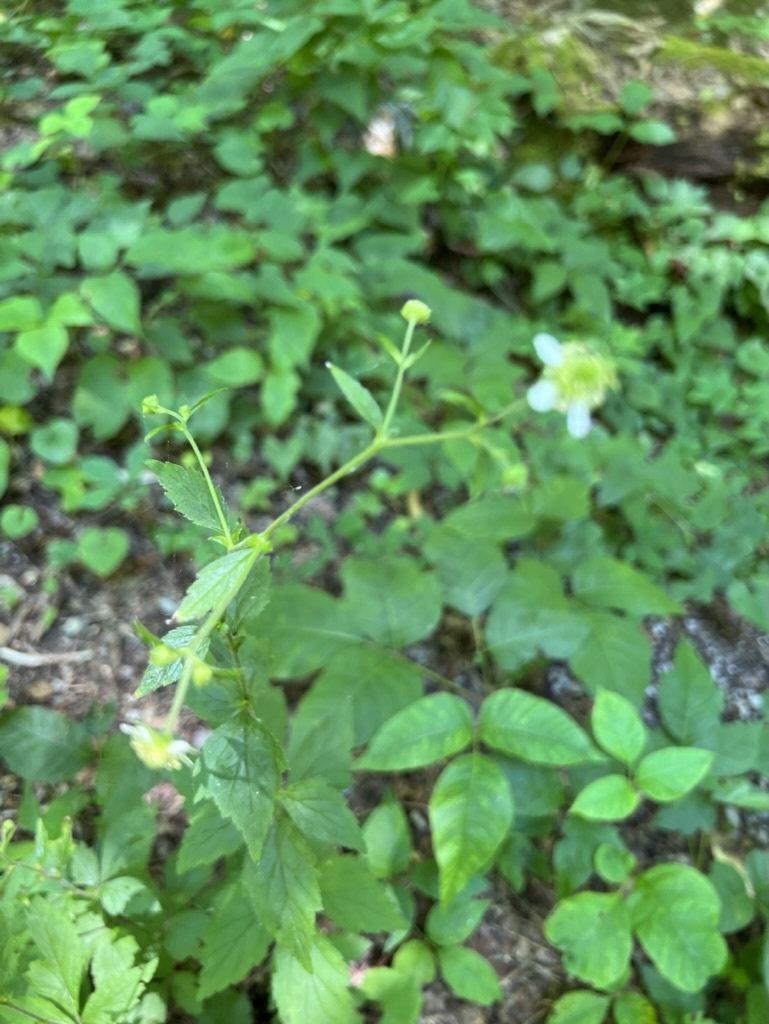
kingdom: Plantae
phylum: Tracheophyta
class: Magnoliopsida
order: Rosales
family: Rosaceae
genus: Geum
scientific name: Geum canadense
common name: White avens
